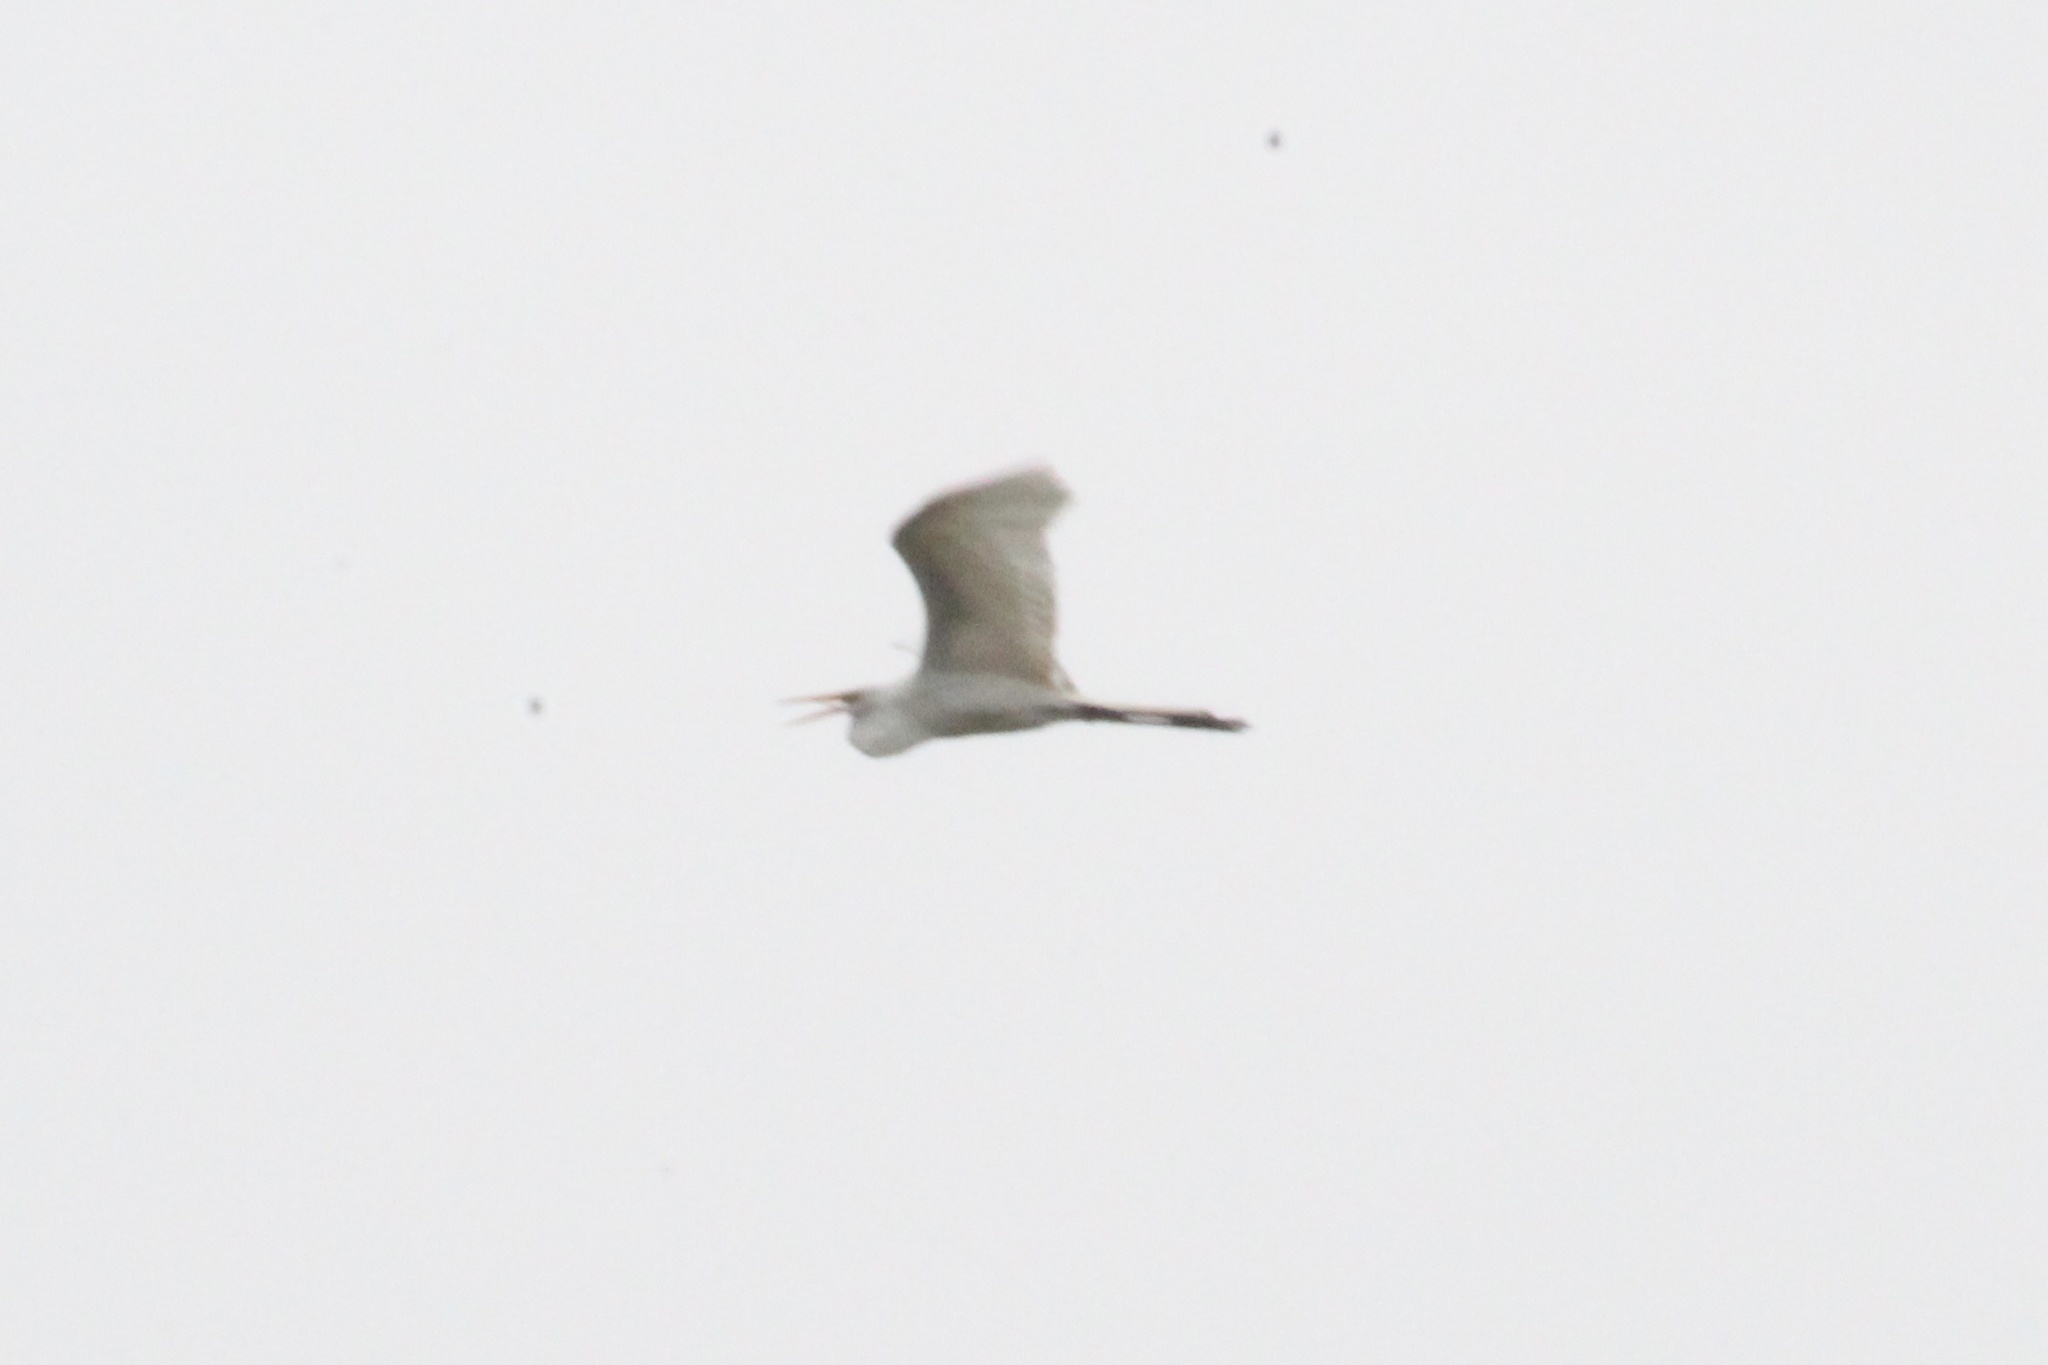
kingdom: Animalia
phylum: Chordata
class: Aves
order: Pelecaniformes
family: Ardeidae
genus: Ardea
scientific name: Ardea alba
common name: Great egret
